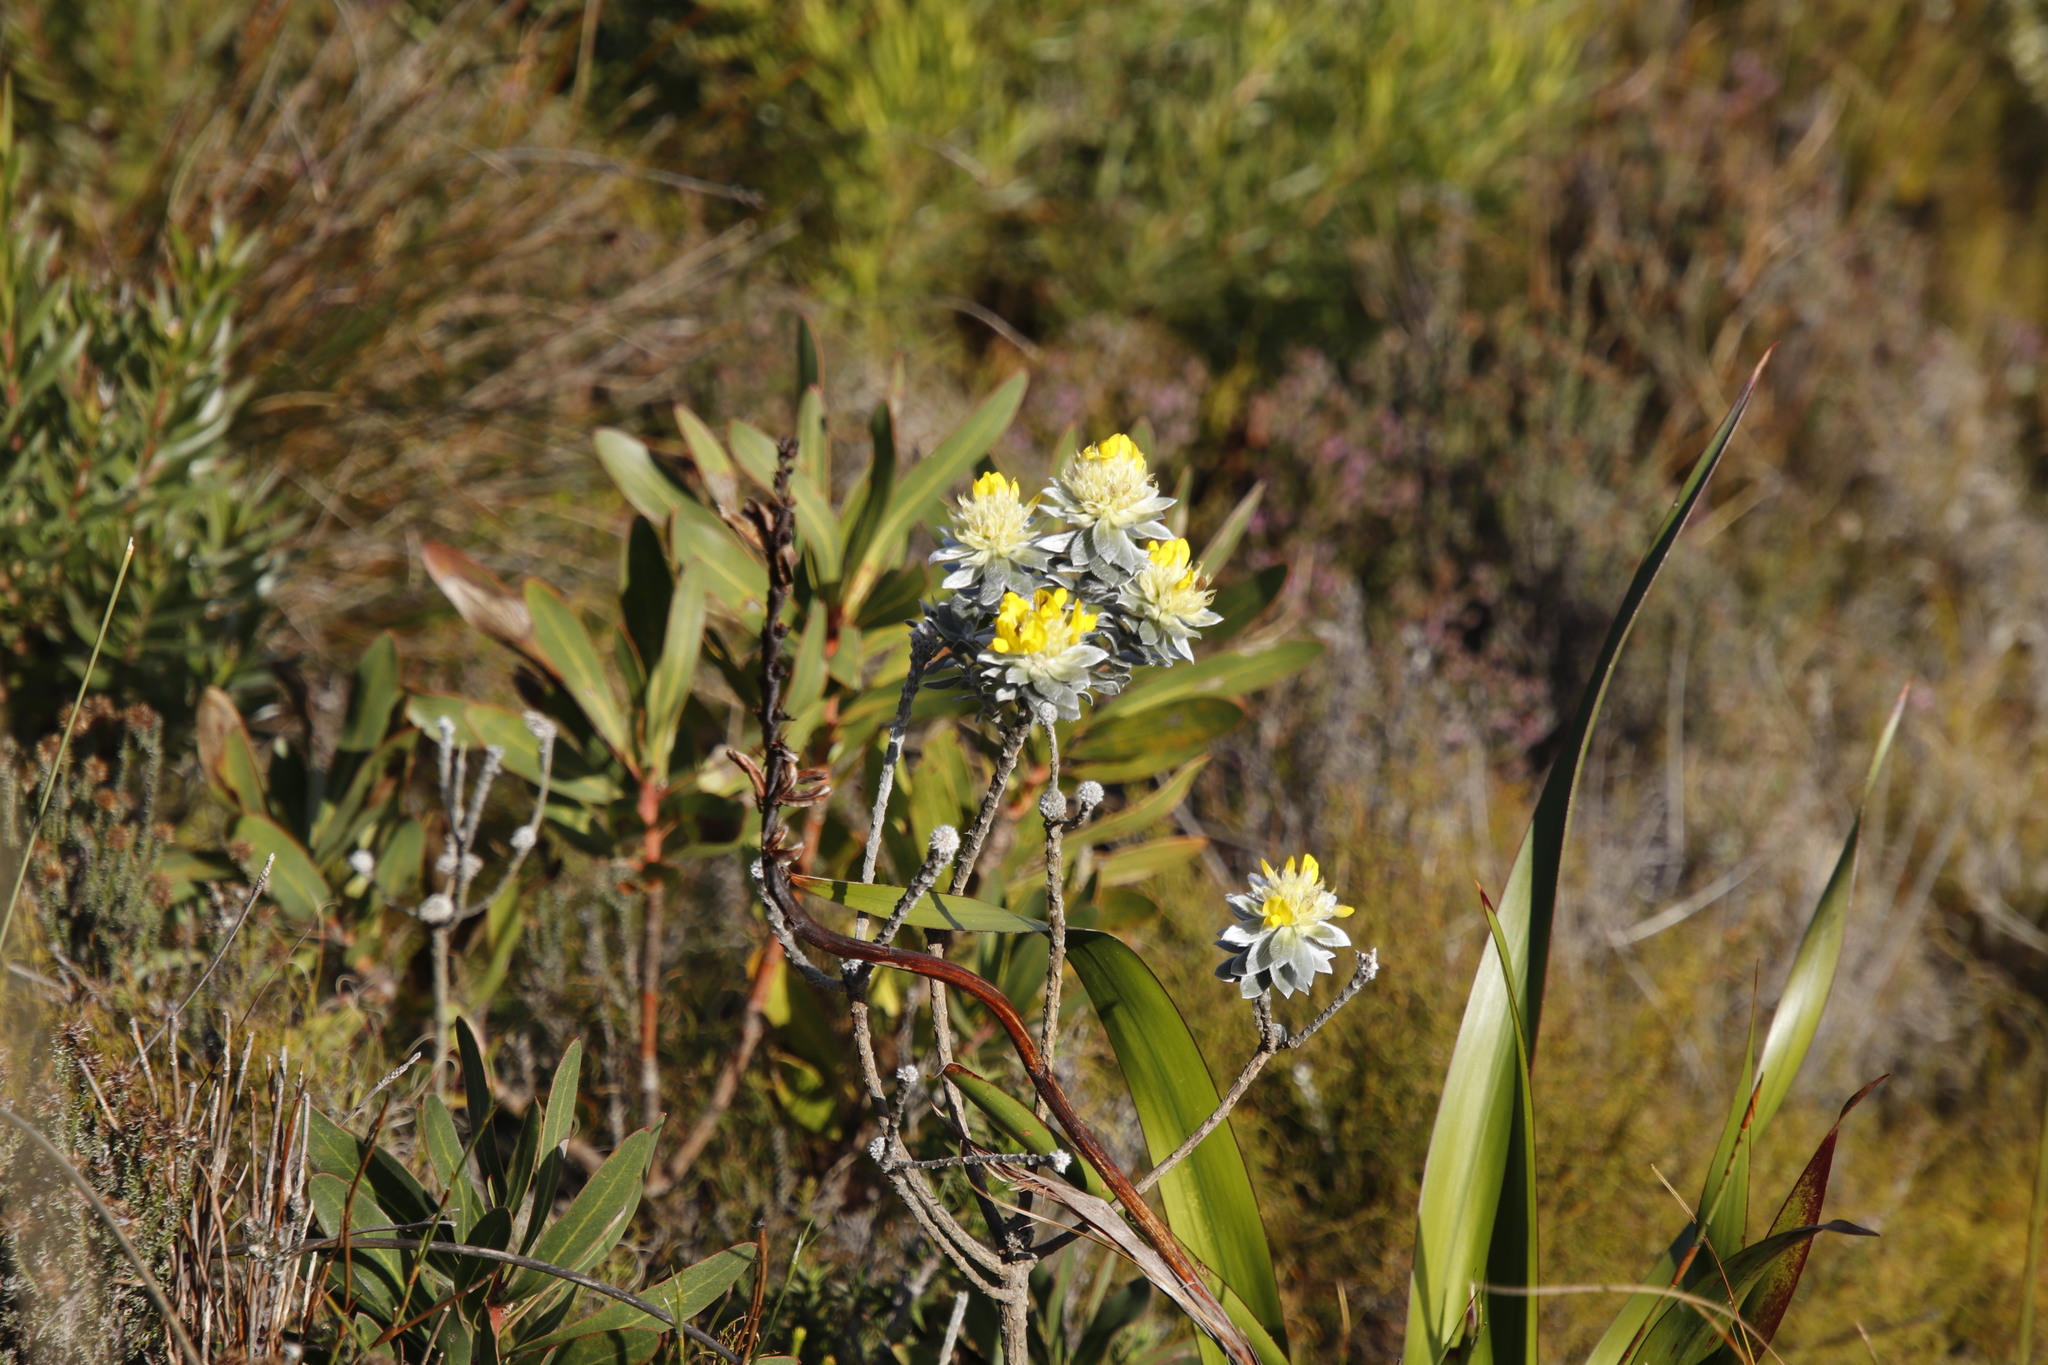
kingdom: Plantae
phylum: Tracheophyta
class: Magnoliopsida
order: Fabales
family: Fabaceae
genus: Xiphotheca
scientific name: Xiphotheca fruticosa
